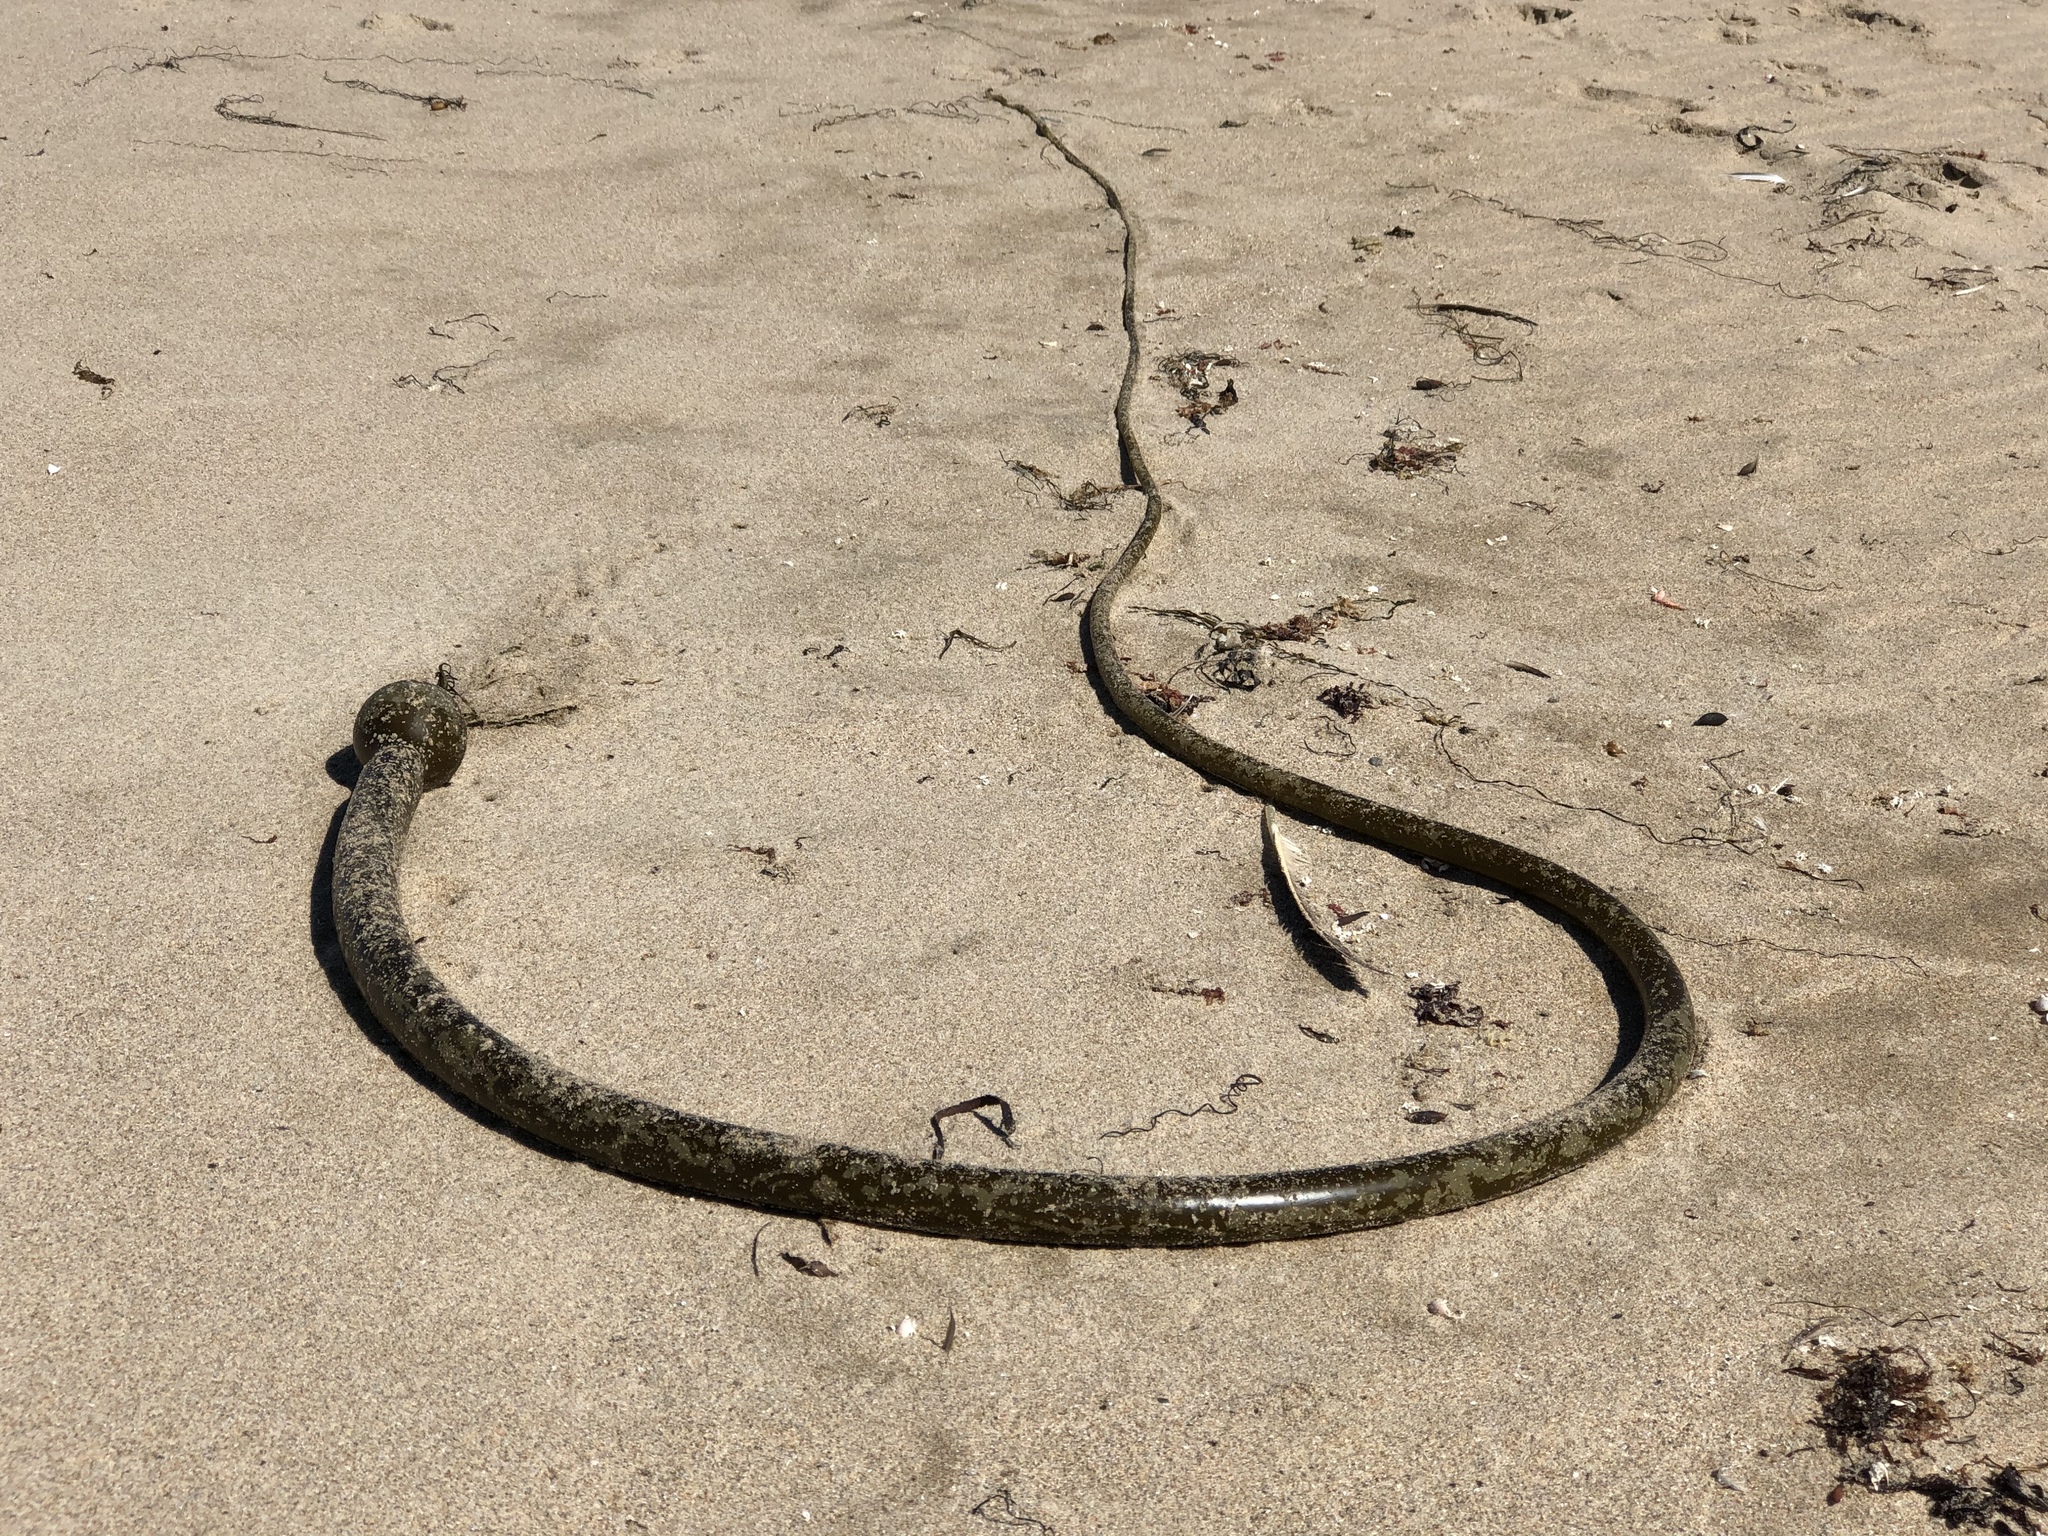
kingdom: Chromista
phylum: Ochrophyta
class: Phaeophyceae
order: Laminariales
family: Laminariaceae
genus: Nereocystis
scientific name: Nereocystis luetkeana
